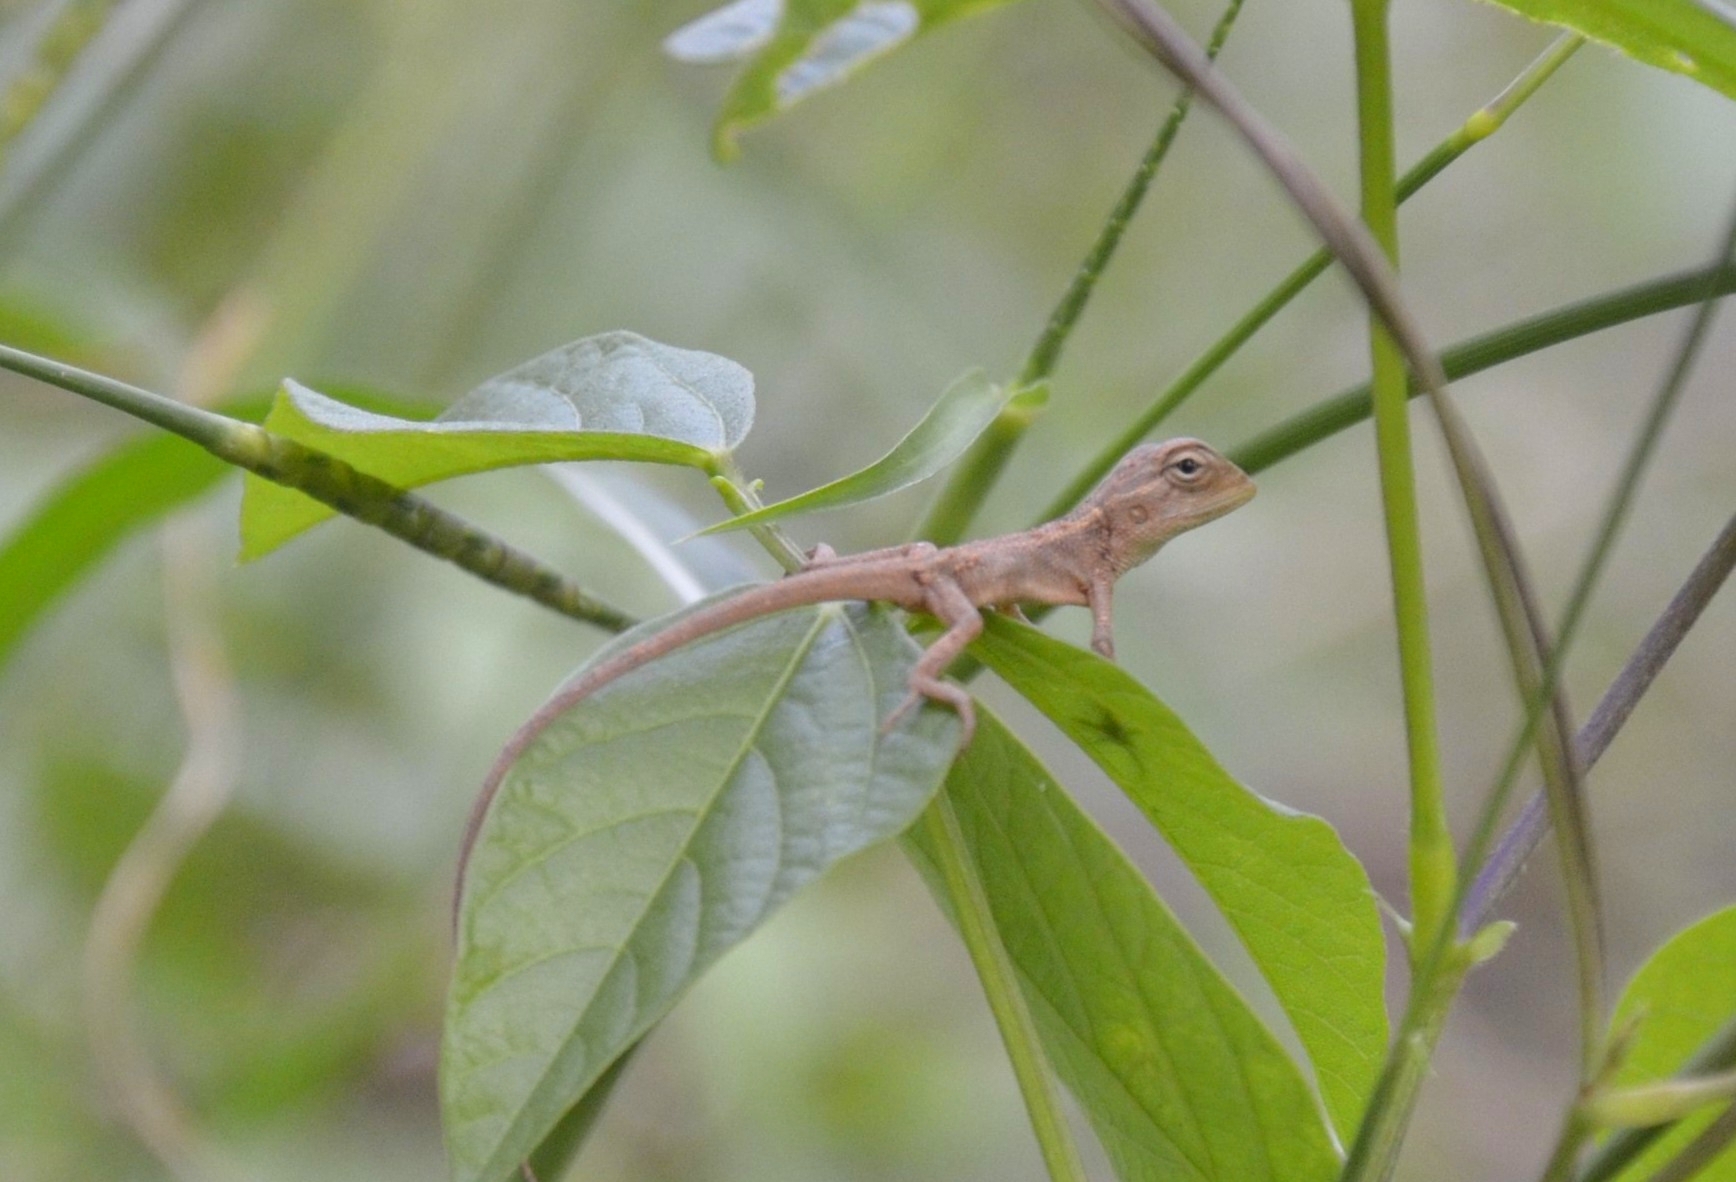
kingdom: Animalia
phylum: Chordata
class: Squamata
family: Agamidae
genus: Calotes
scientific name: Calotes versicolor
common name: Oriental garden lizard
